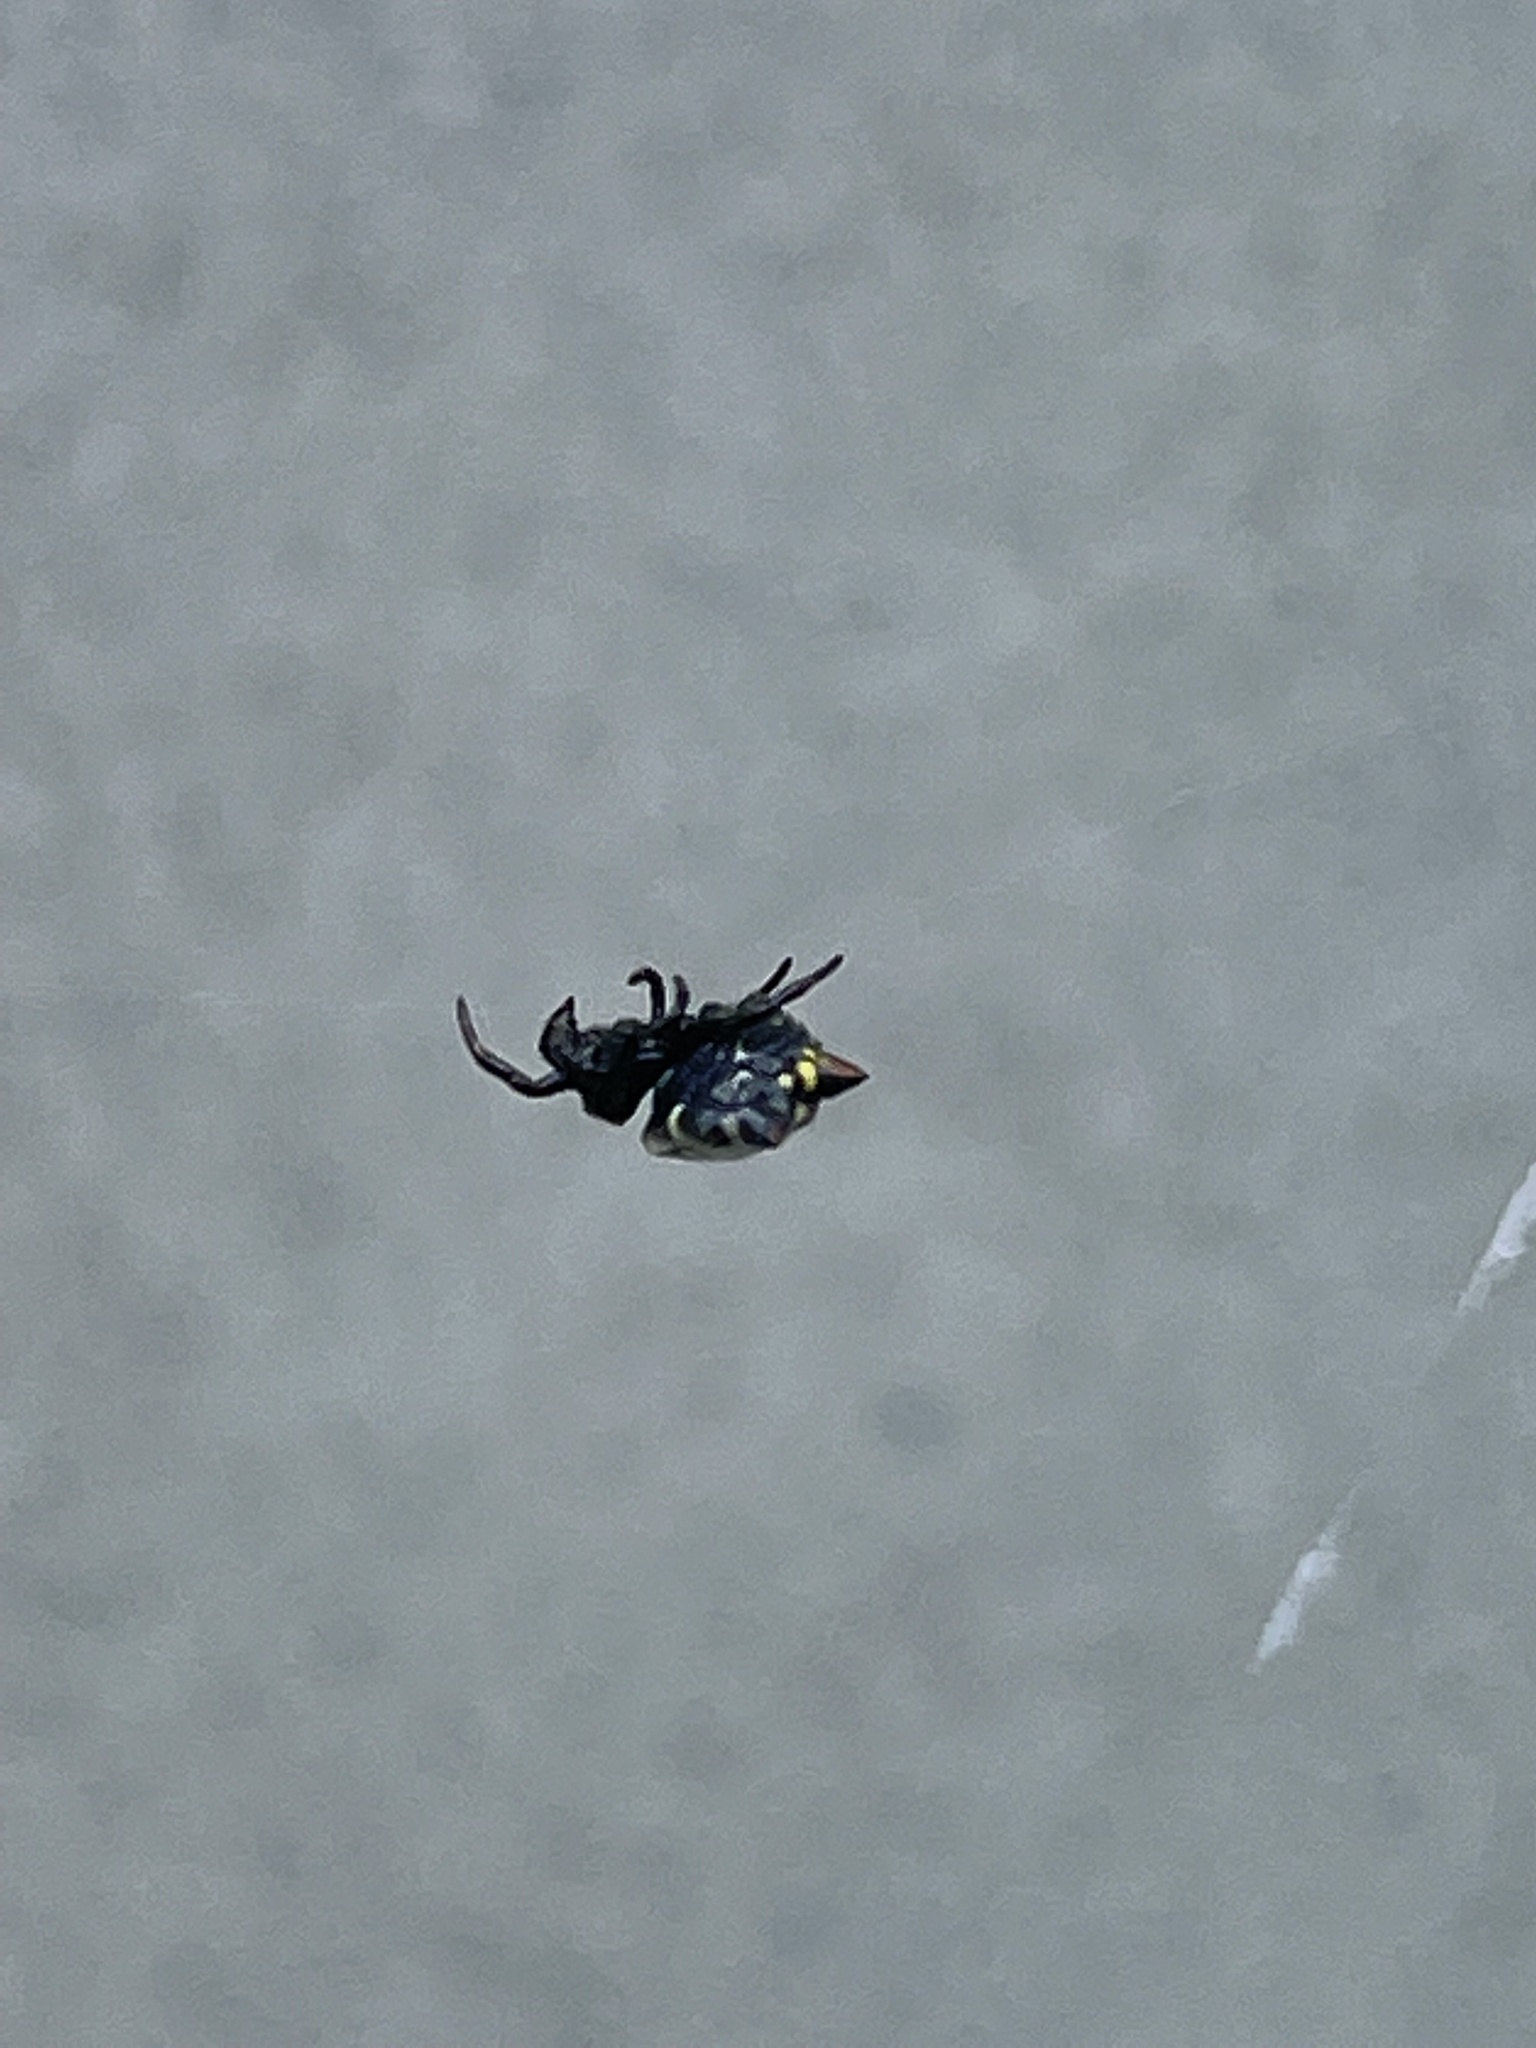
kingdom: Animalia
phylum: Arthropoda
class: Arachnida
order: Araneae
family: Araneidae
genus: Gasteracantha
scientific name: Gasteracantha cancriformis
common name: Orb weavers
